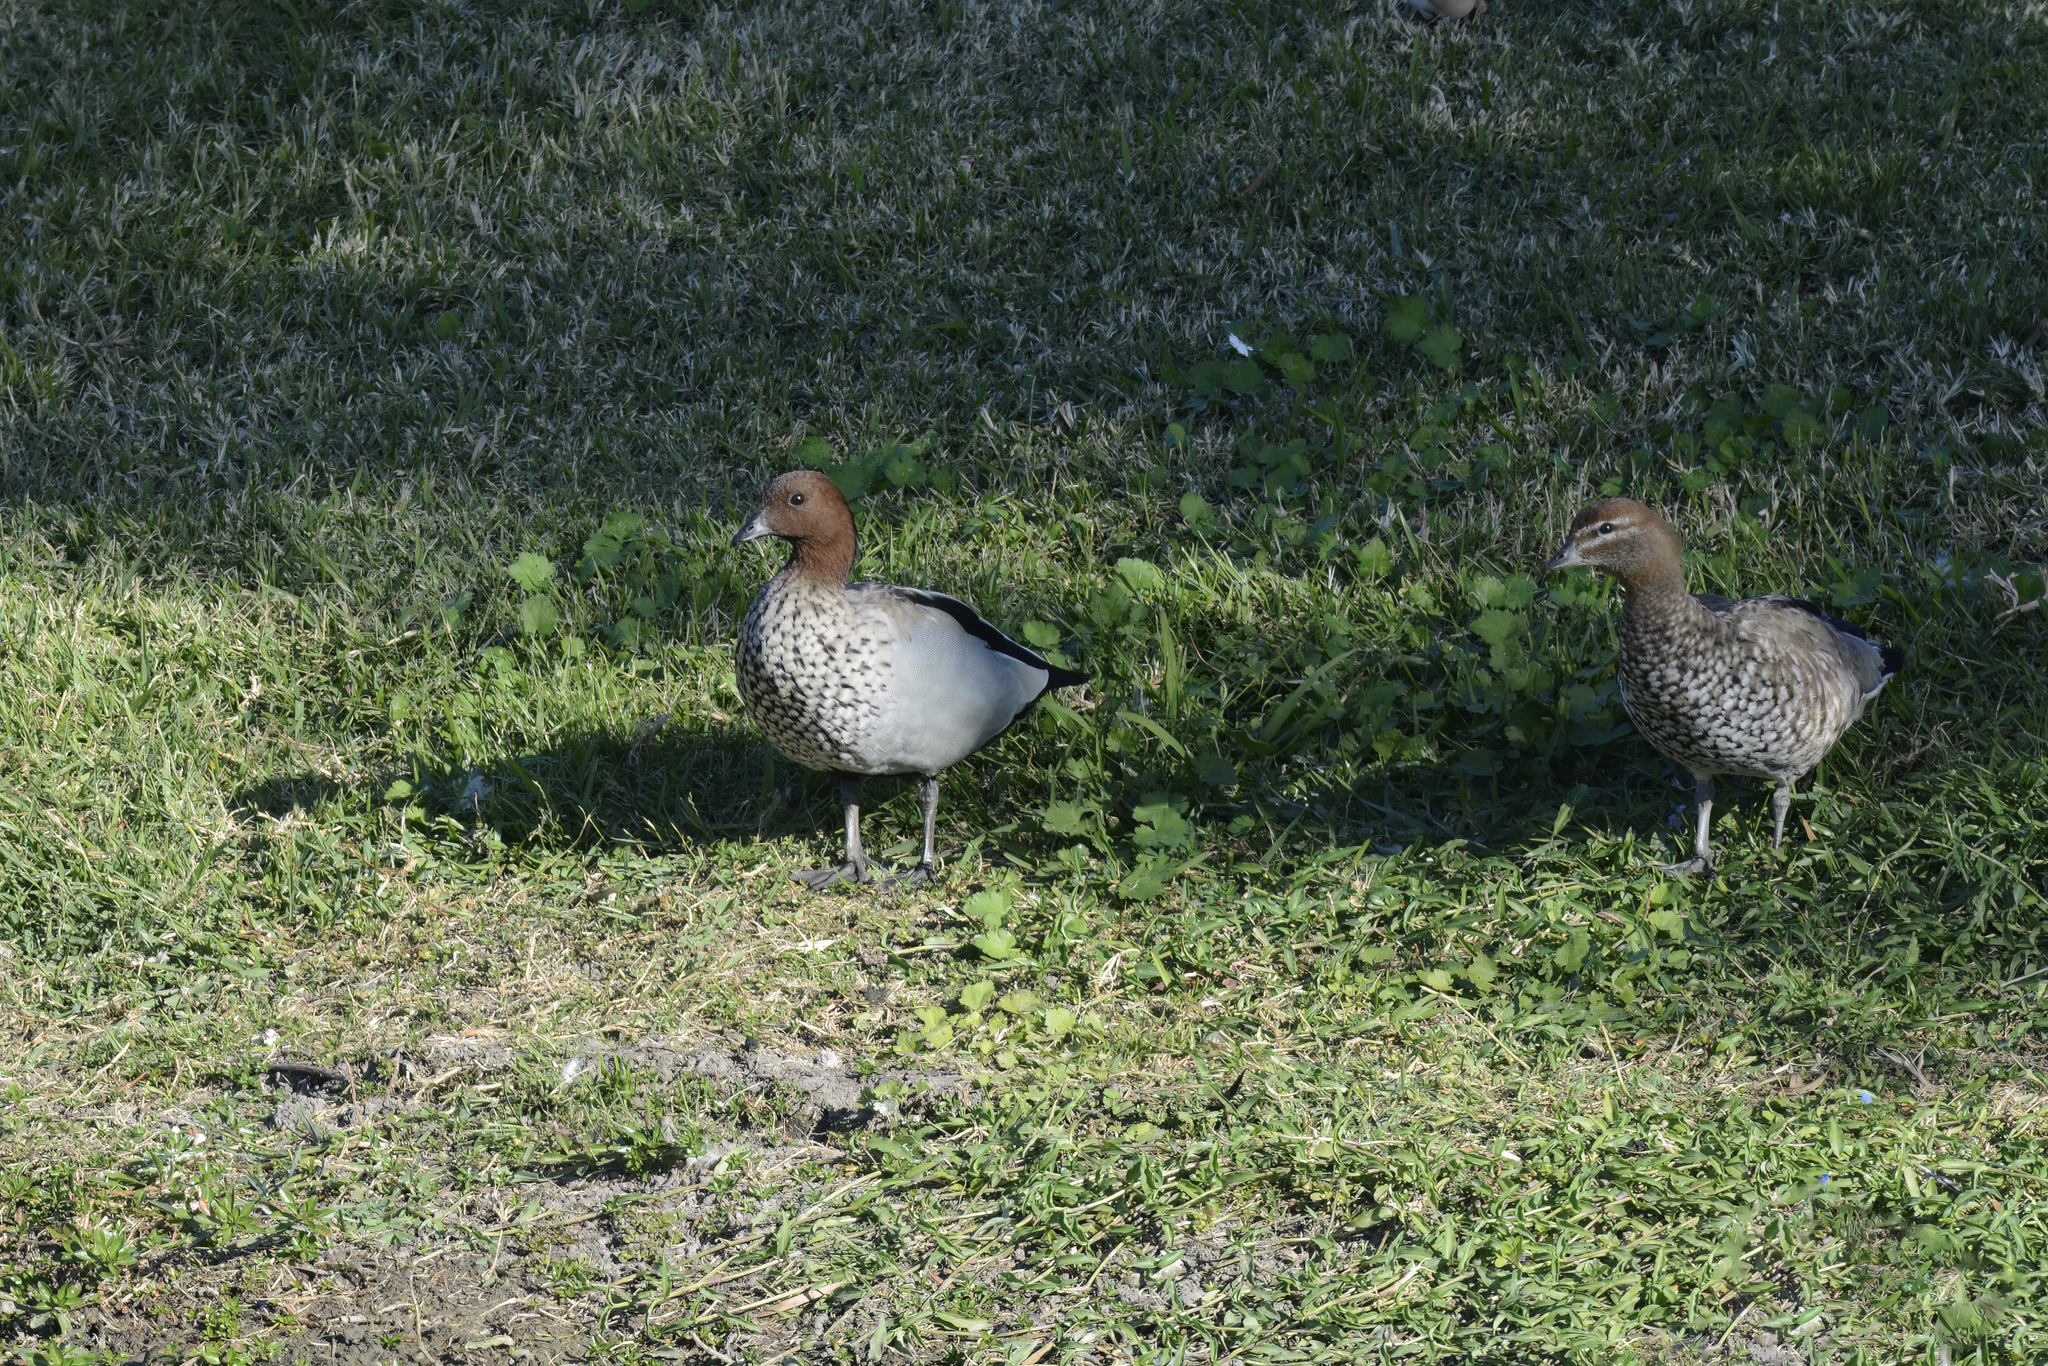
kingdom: Animalia
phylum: Chordata
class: Aves
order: Anseriformes
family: Anatidae
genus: Chenonetta
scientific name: Chenonetta jubata
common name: Maned duck
